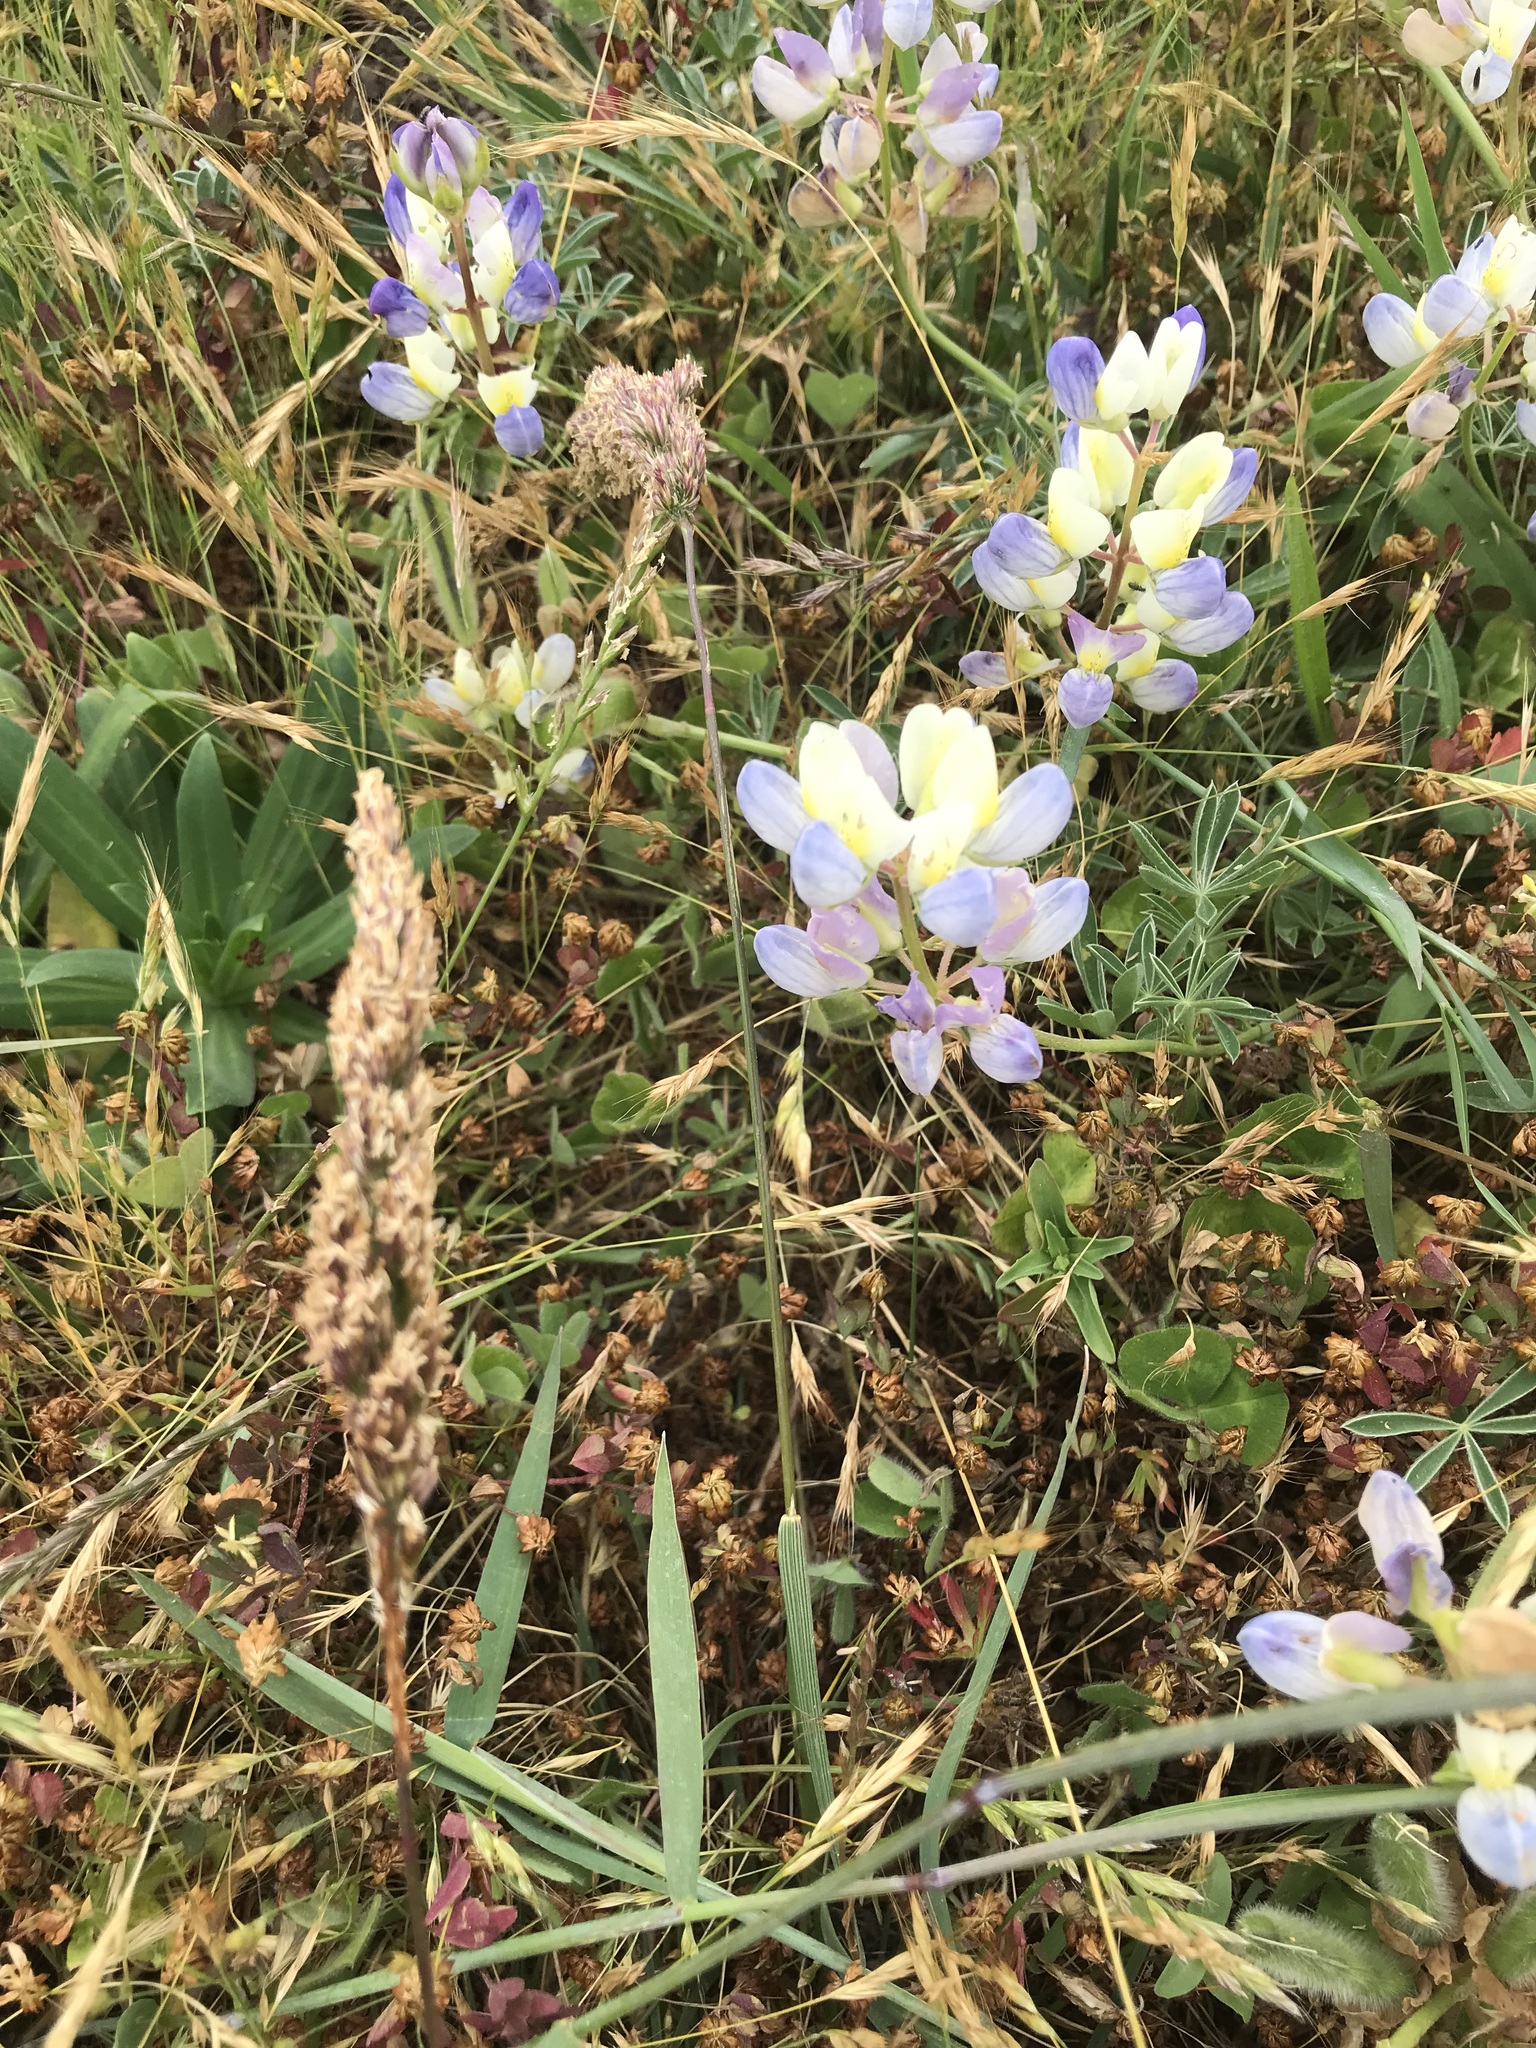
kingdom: Plantae
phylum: Tracheophyta
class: Magnoliopsida
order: Fabales
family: Fabaceae
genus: Lupinus
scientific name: Lupinus variicolor
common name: Lindley's varied lupine
